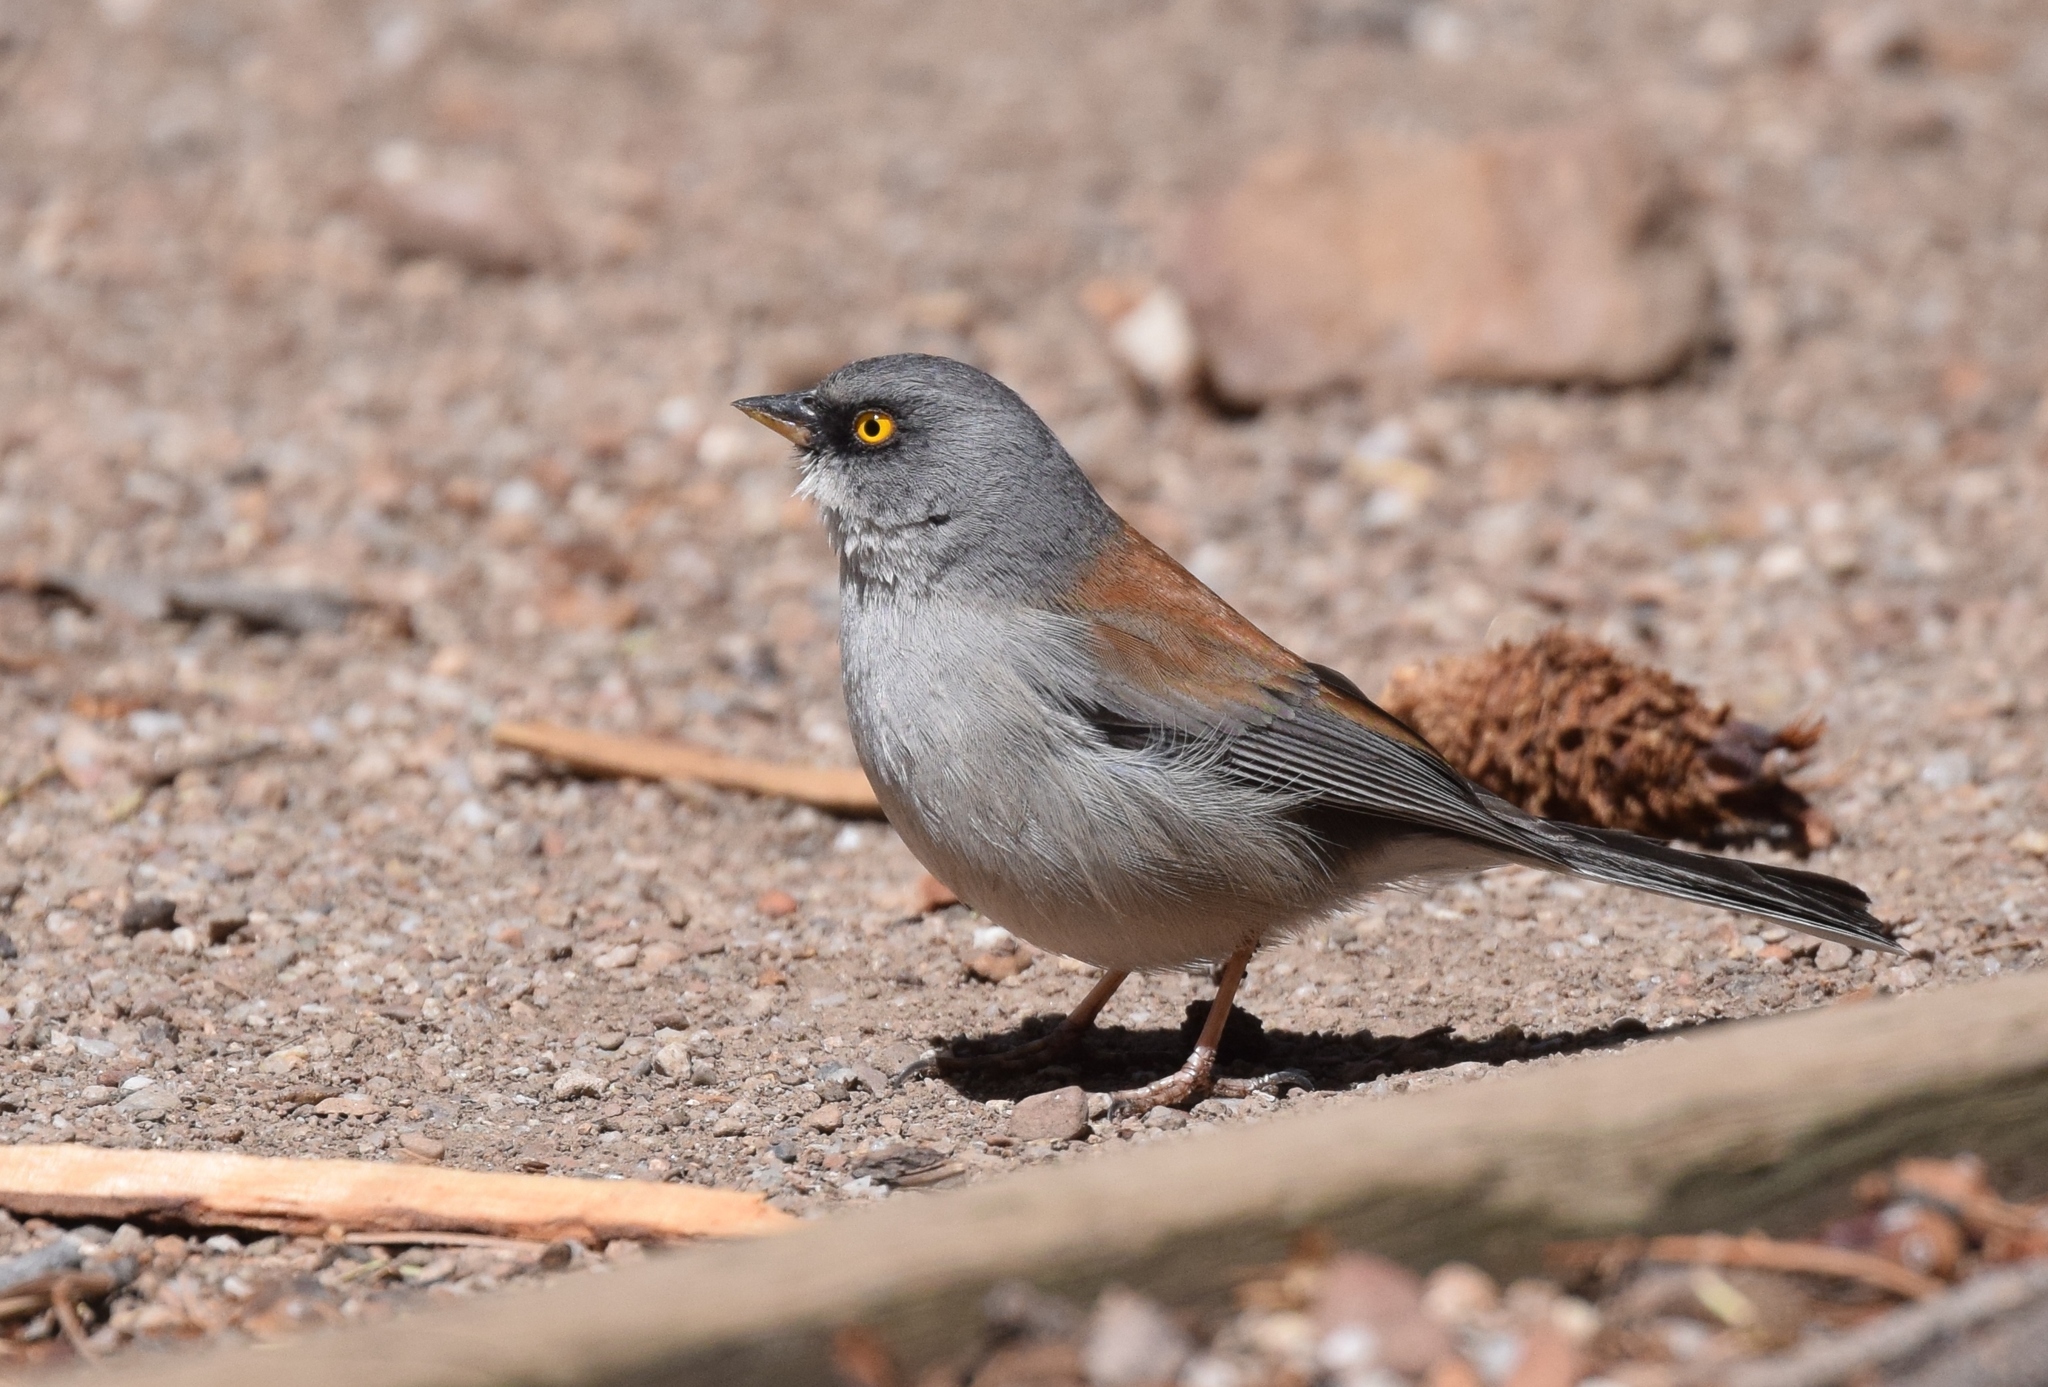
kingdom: Animalia
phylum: Chordata
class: Aves
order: Passeriformes
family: Passerellidae
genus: Junco
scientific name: Junco phaeonotus
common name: Yellow-eyed junco
